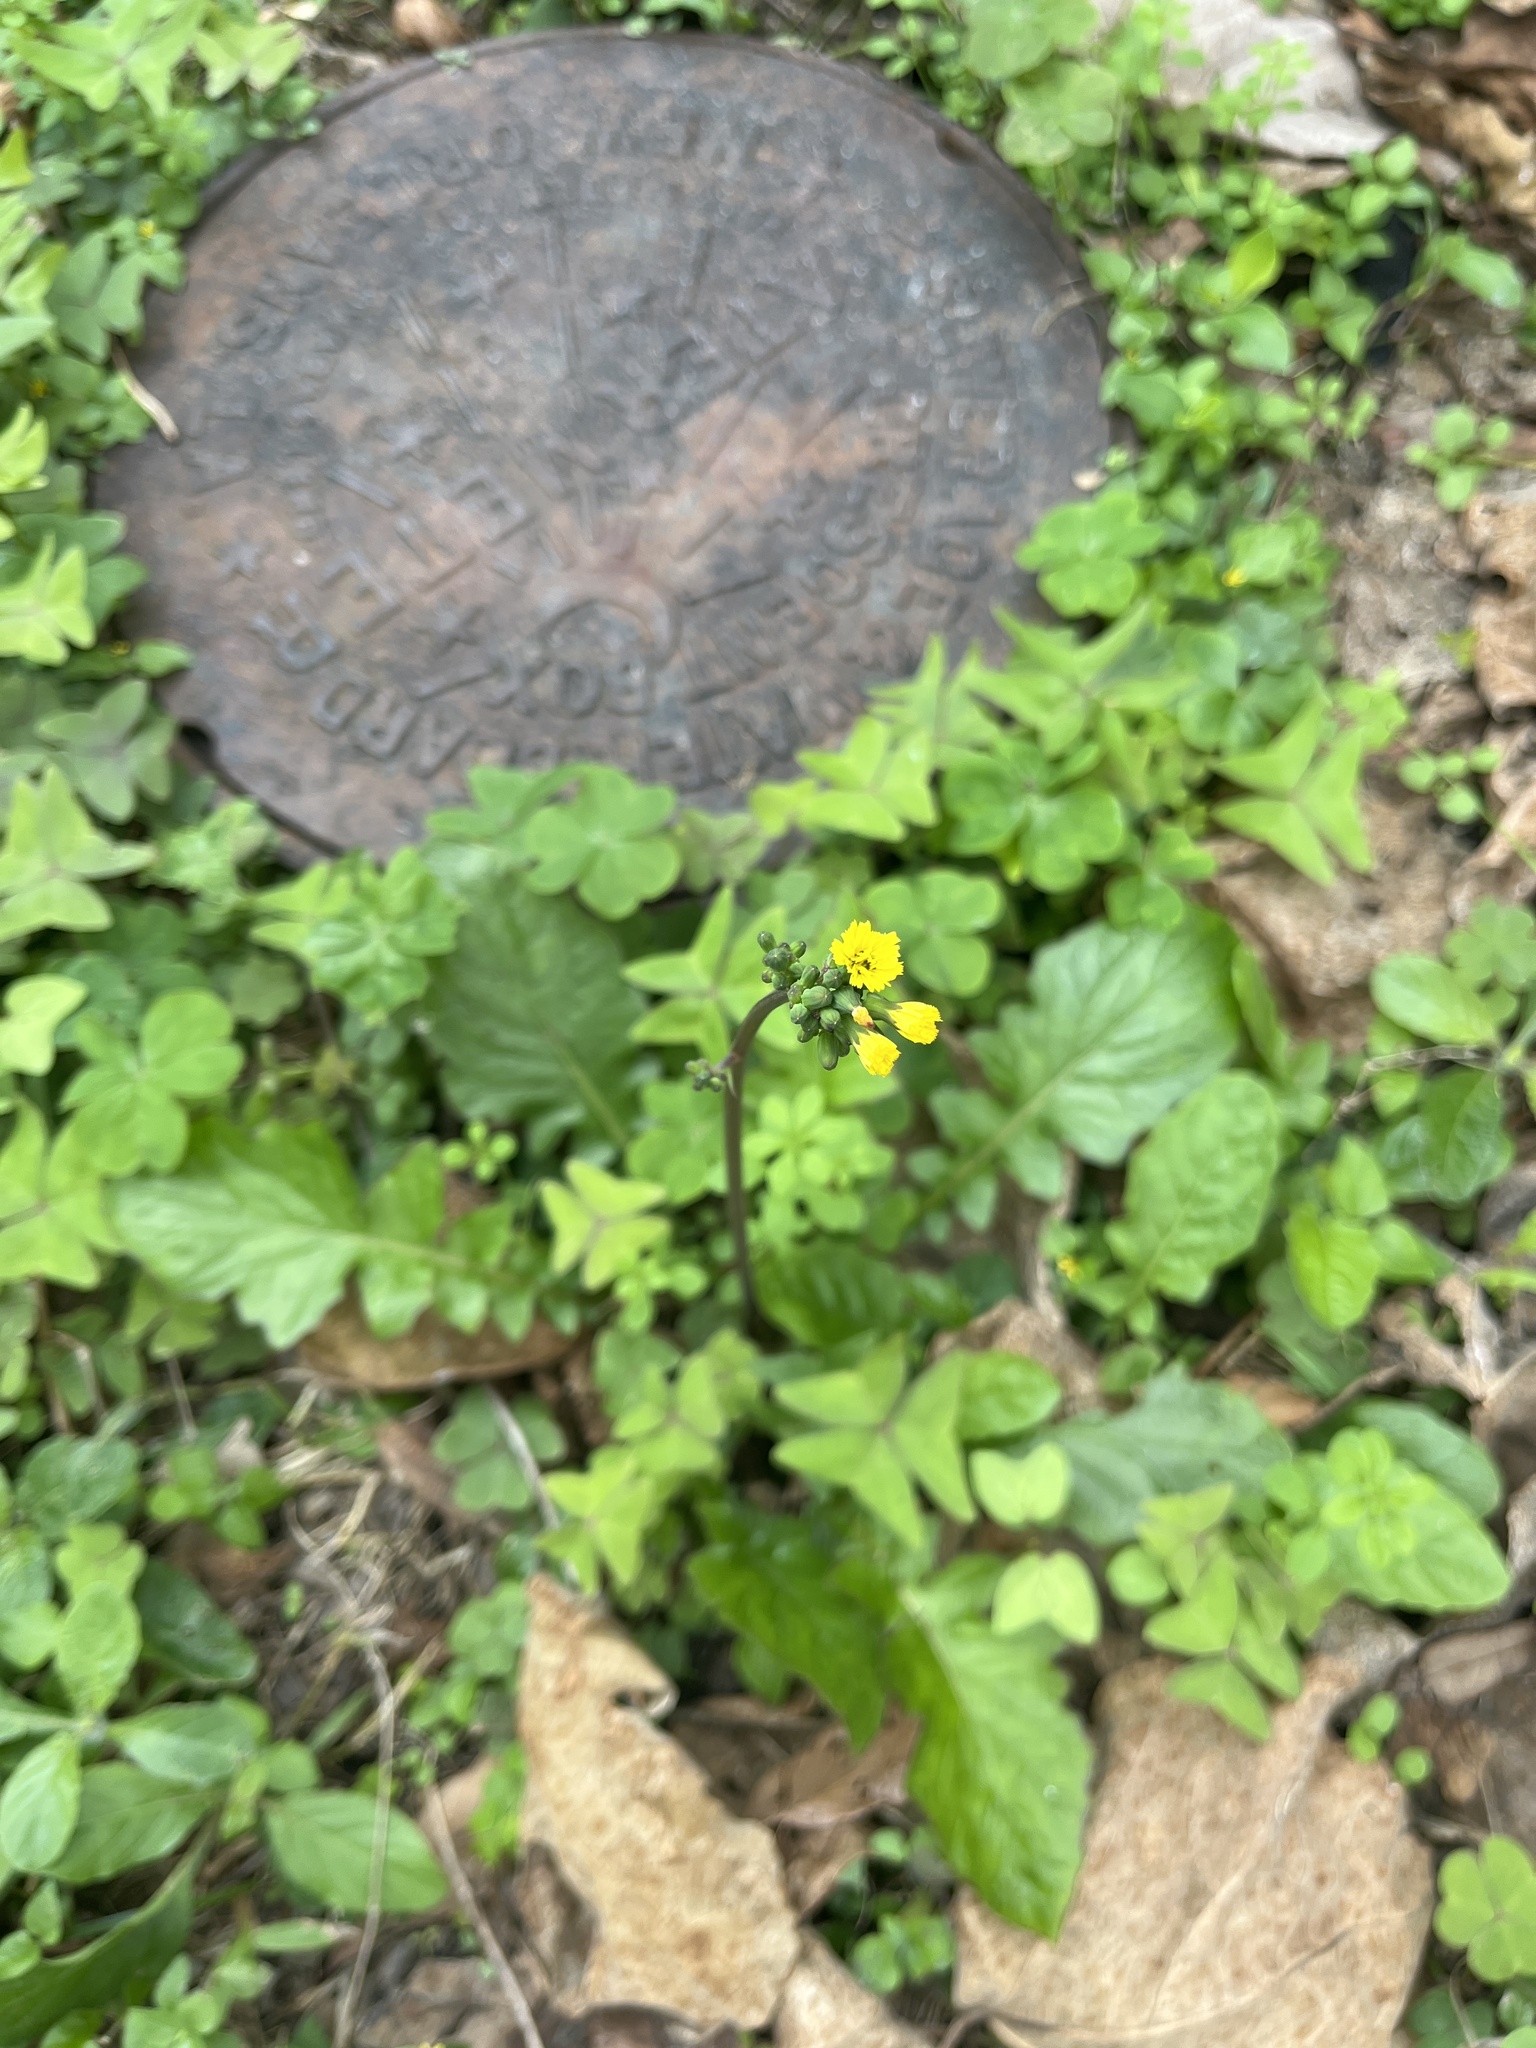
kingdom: Plantae
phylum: Tracheophyta
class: Magnoliopsida
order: Asterales
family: Asteraceae
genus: Youngia
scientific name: Youngia japonica
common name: Oriental false hawksbeard
